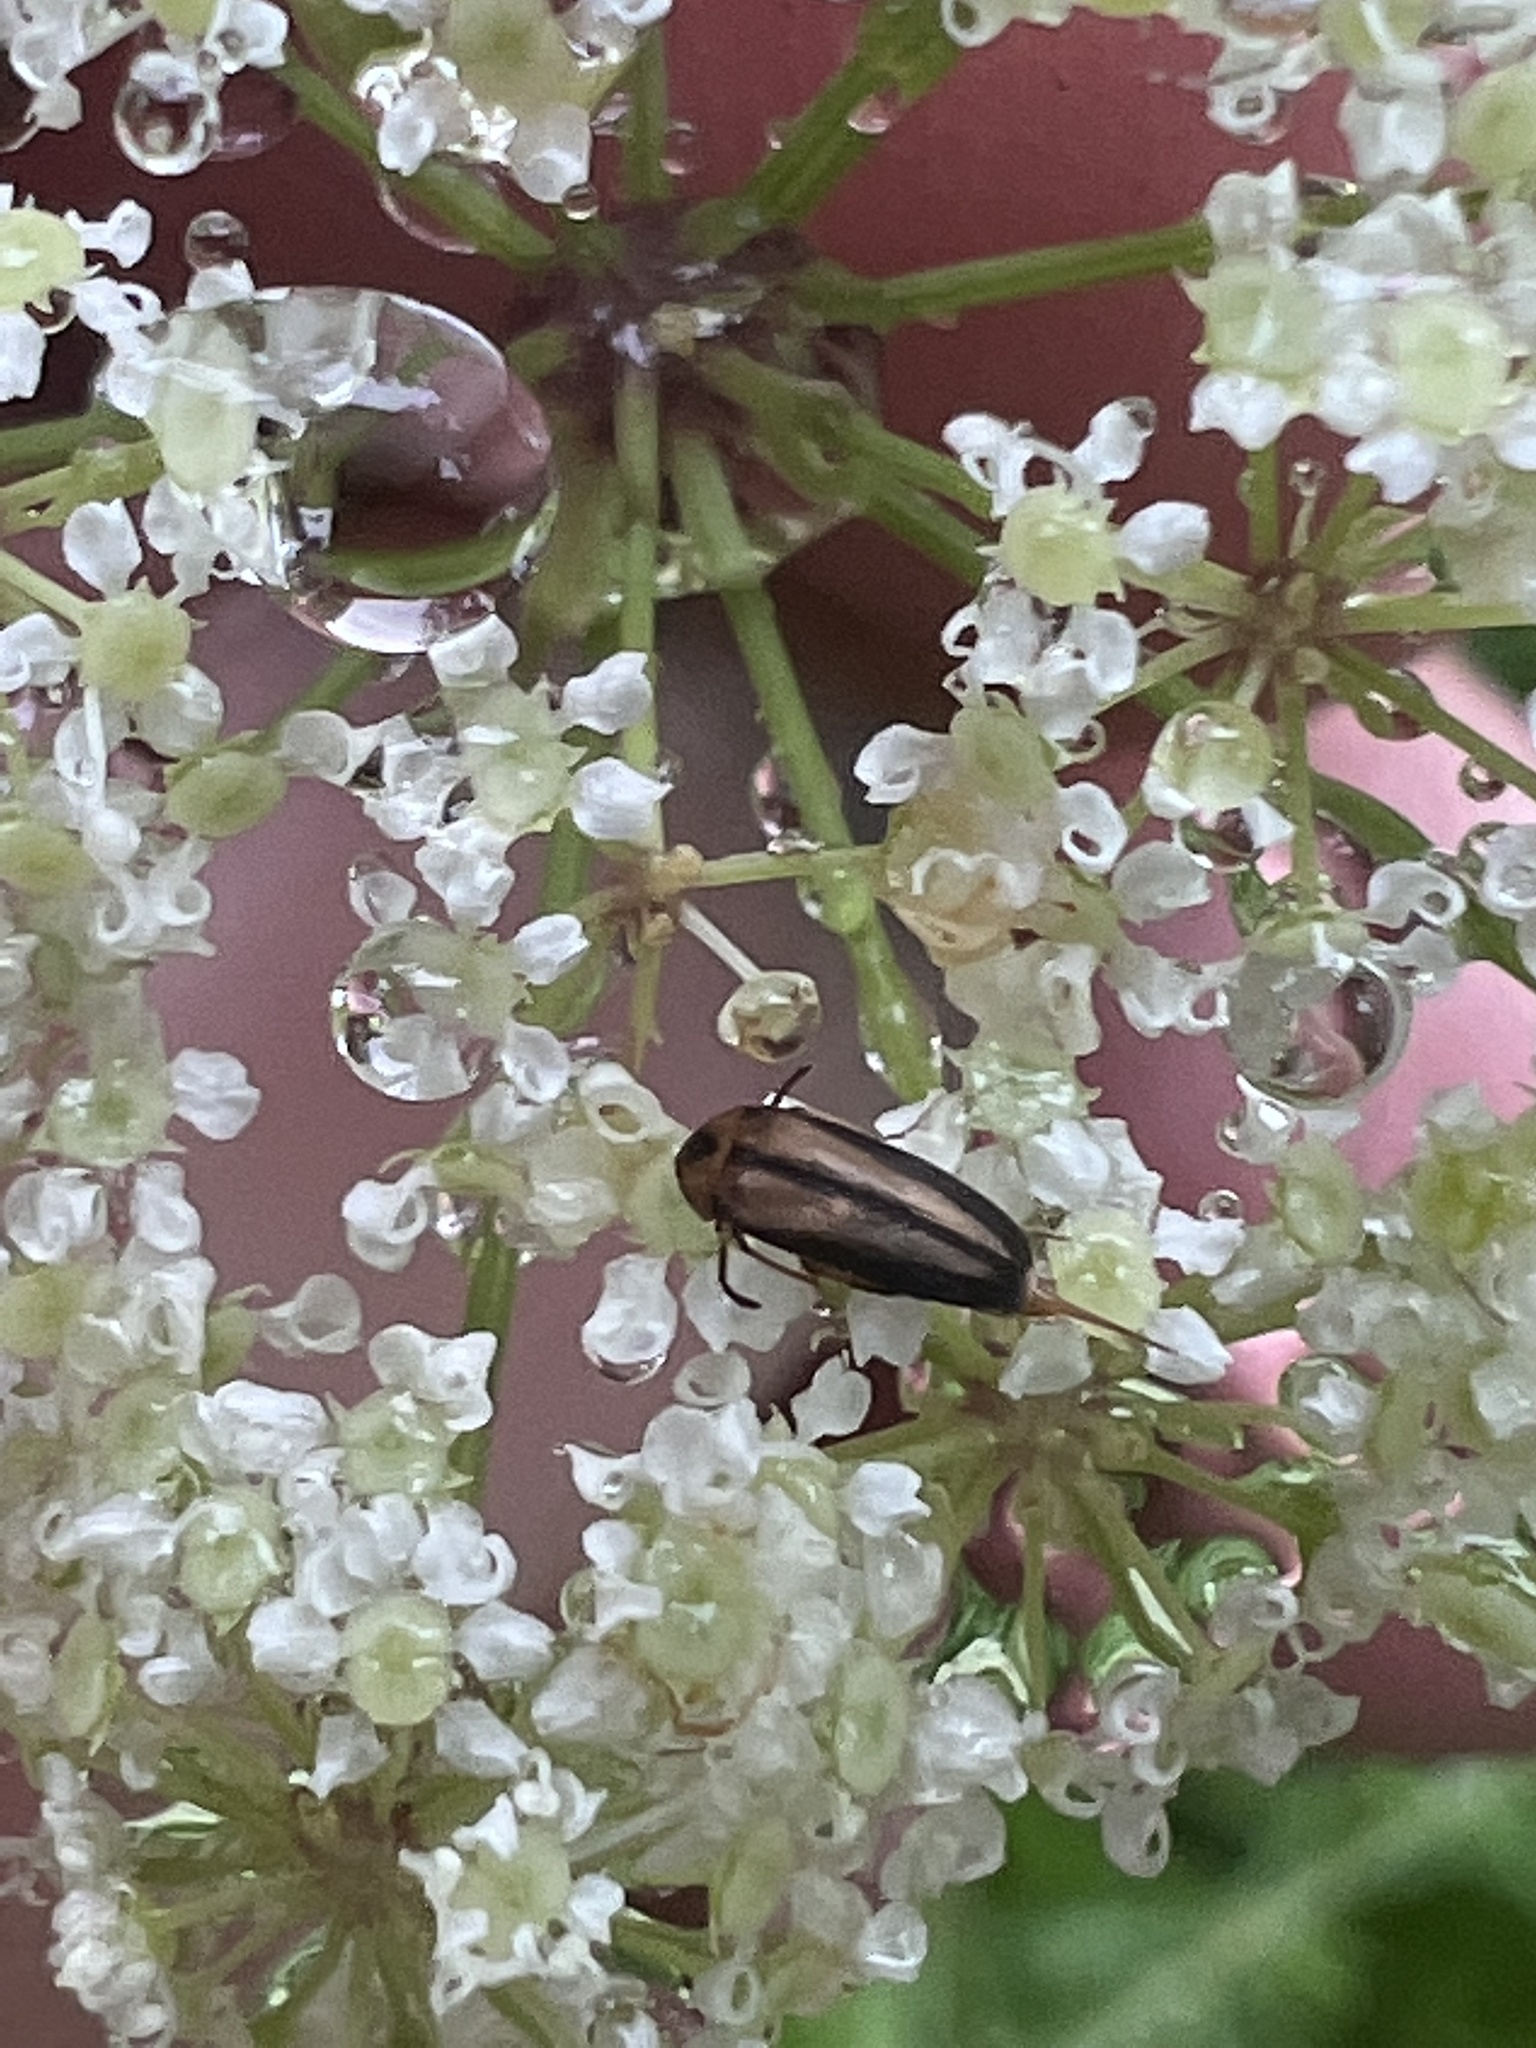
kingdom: Animalia
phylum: Arthropoda
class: Insecta
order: Coleoptera
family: Mordellidae
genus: Mordellistena
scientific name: Mordellistena limbalis
